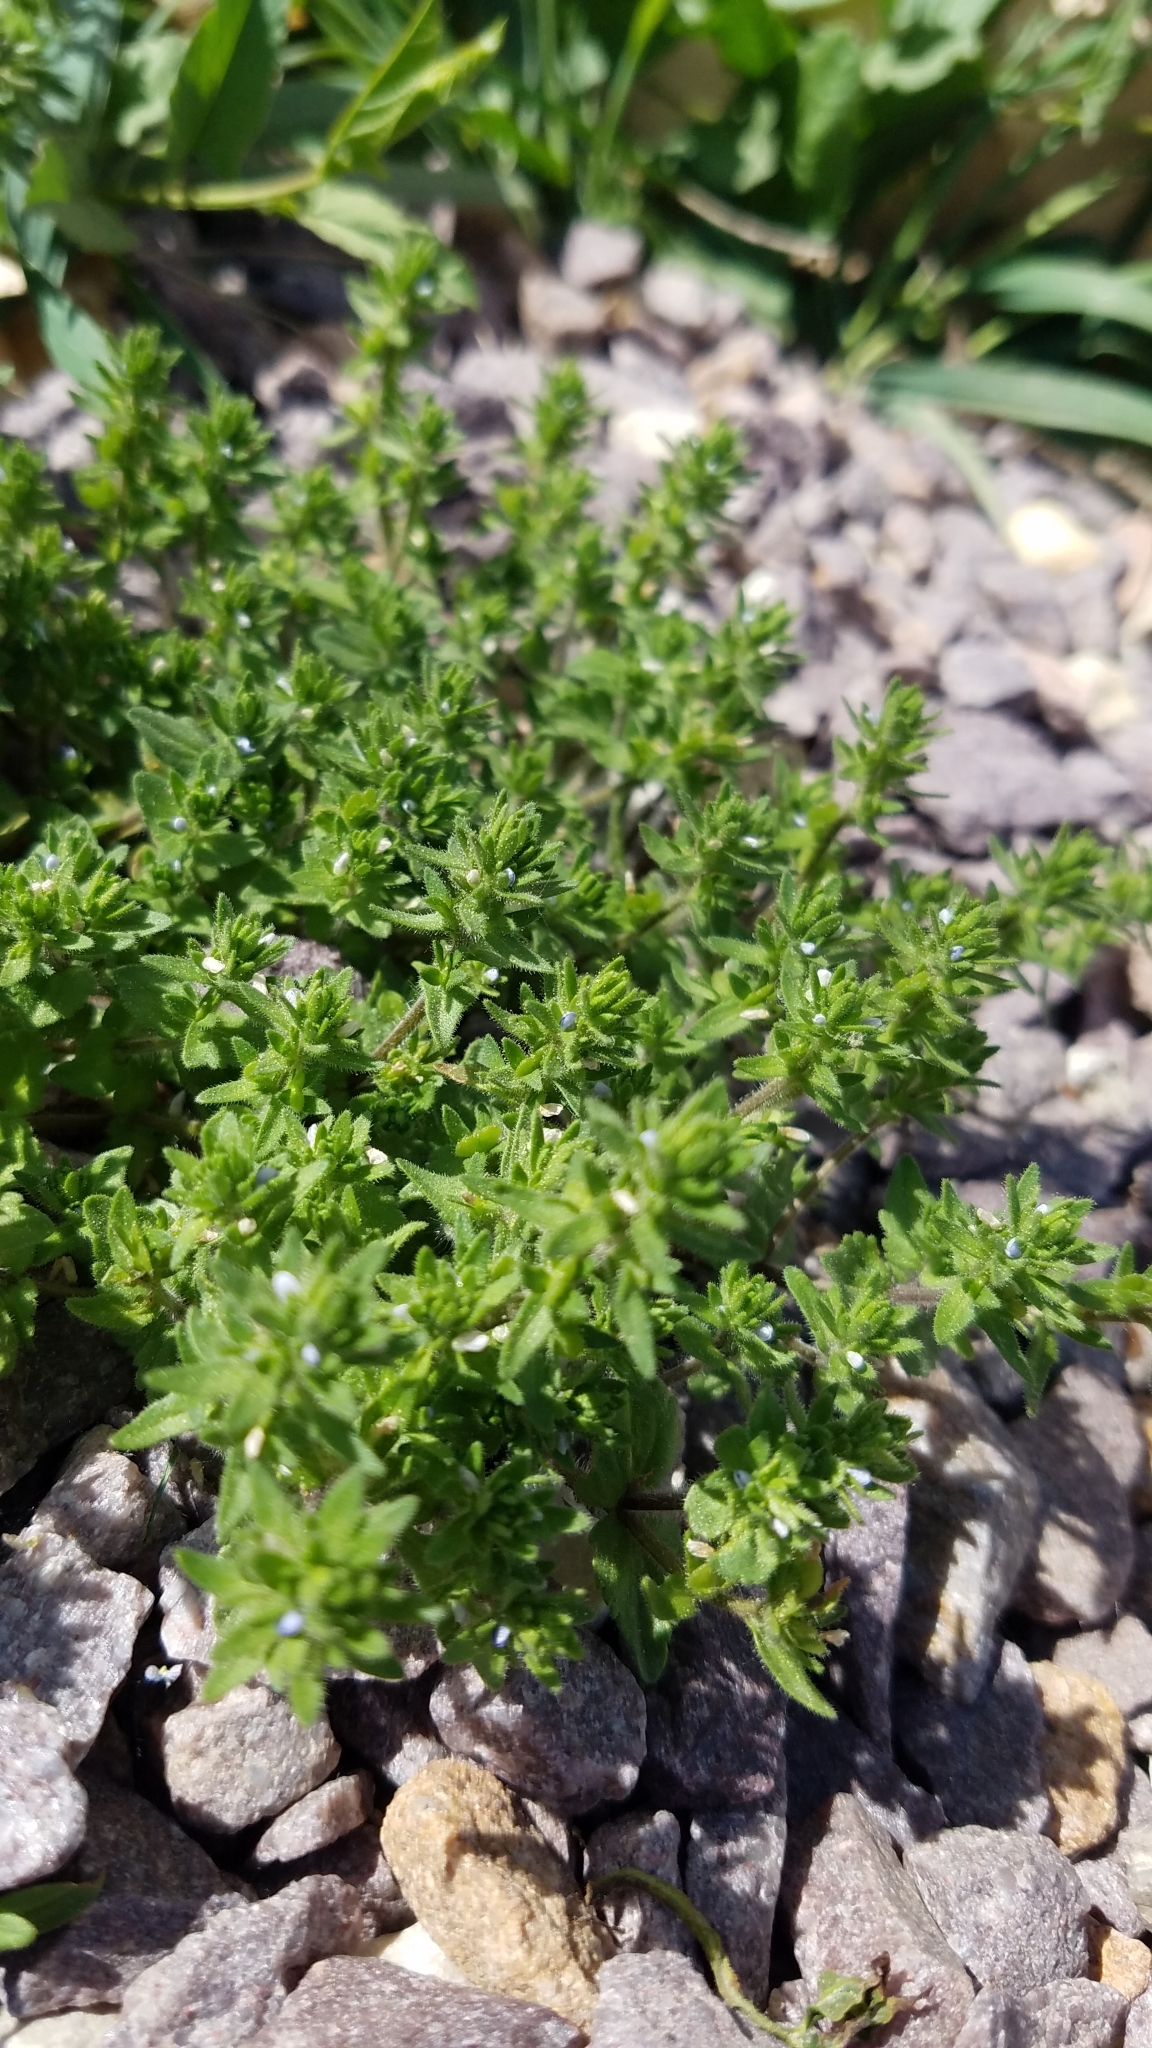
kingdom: Plantae
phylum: Tracheophyta
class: Magnoliopsida
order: Lamiales
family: Plantaginaceae
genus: Veronica
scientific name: Veronica arvensis
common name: Corn speedwell
